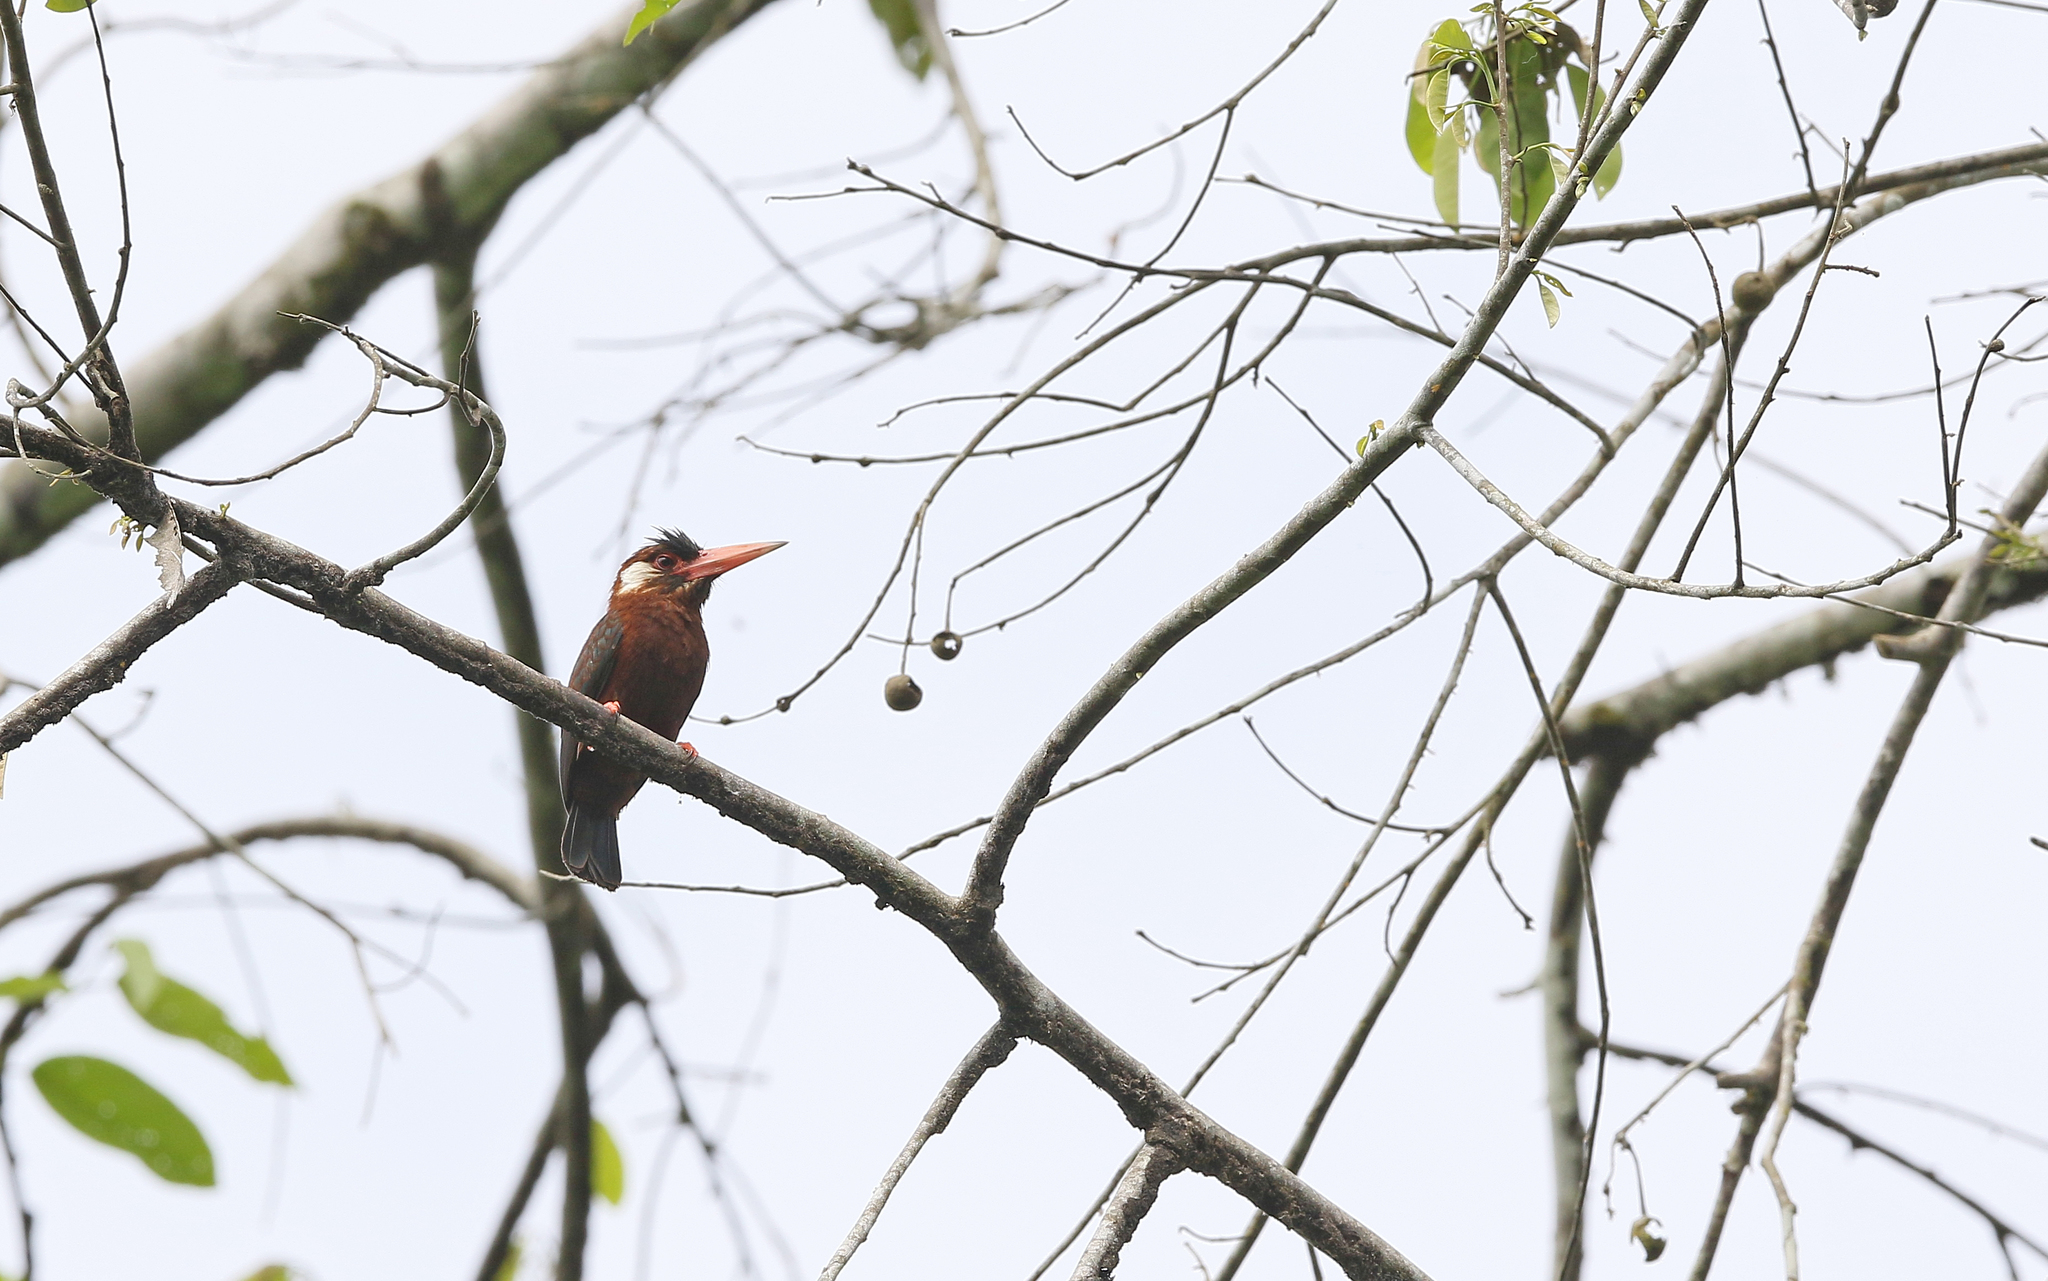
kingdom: Animalia
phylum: Chordata
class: Aves
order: Piciformes
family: Galbulidae
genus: Galbalcyrhynchus
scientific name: Galbalcyrhynchus leucotis
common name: White-eared jacamar
